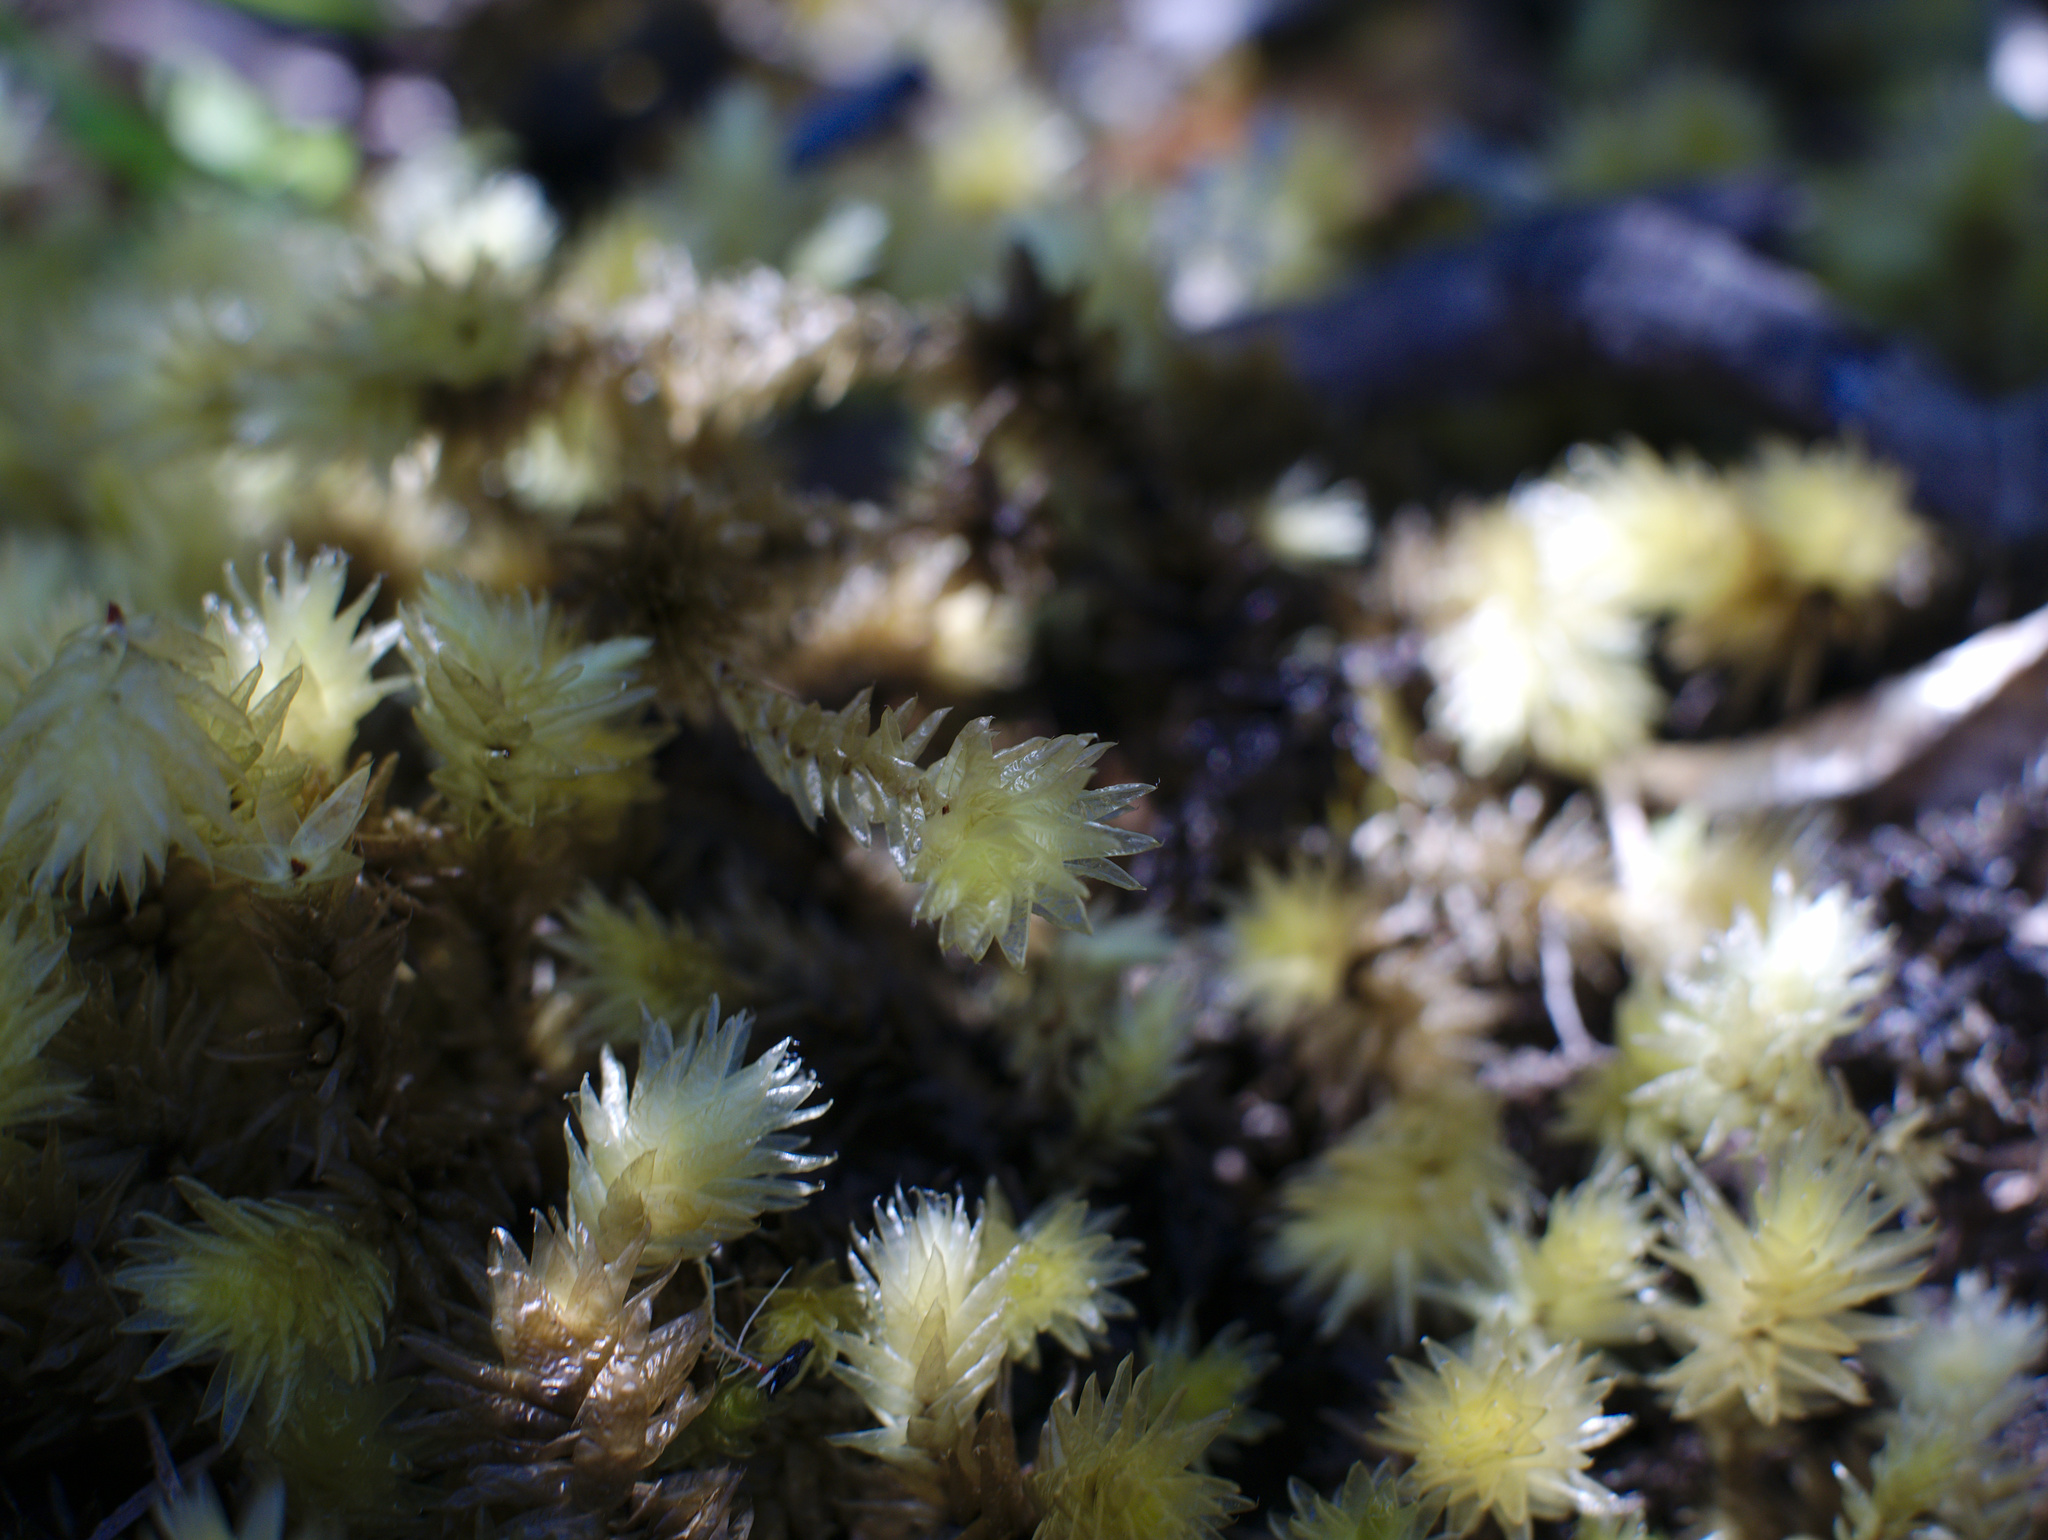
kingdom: Plantae
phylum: Bryophyta
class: Bryopsida
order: Bryales
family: Pulchrinodaceae
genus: Pulchrinodus
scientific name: Pulchrinodus inflatus
